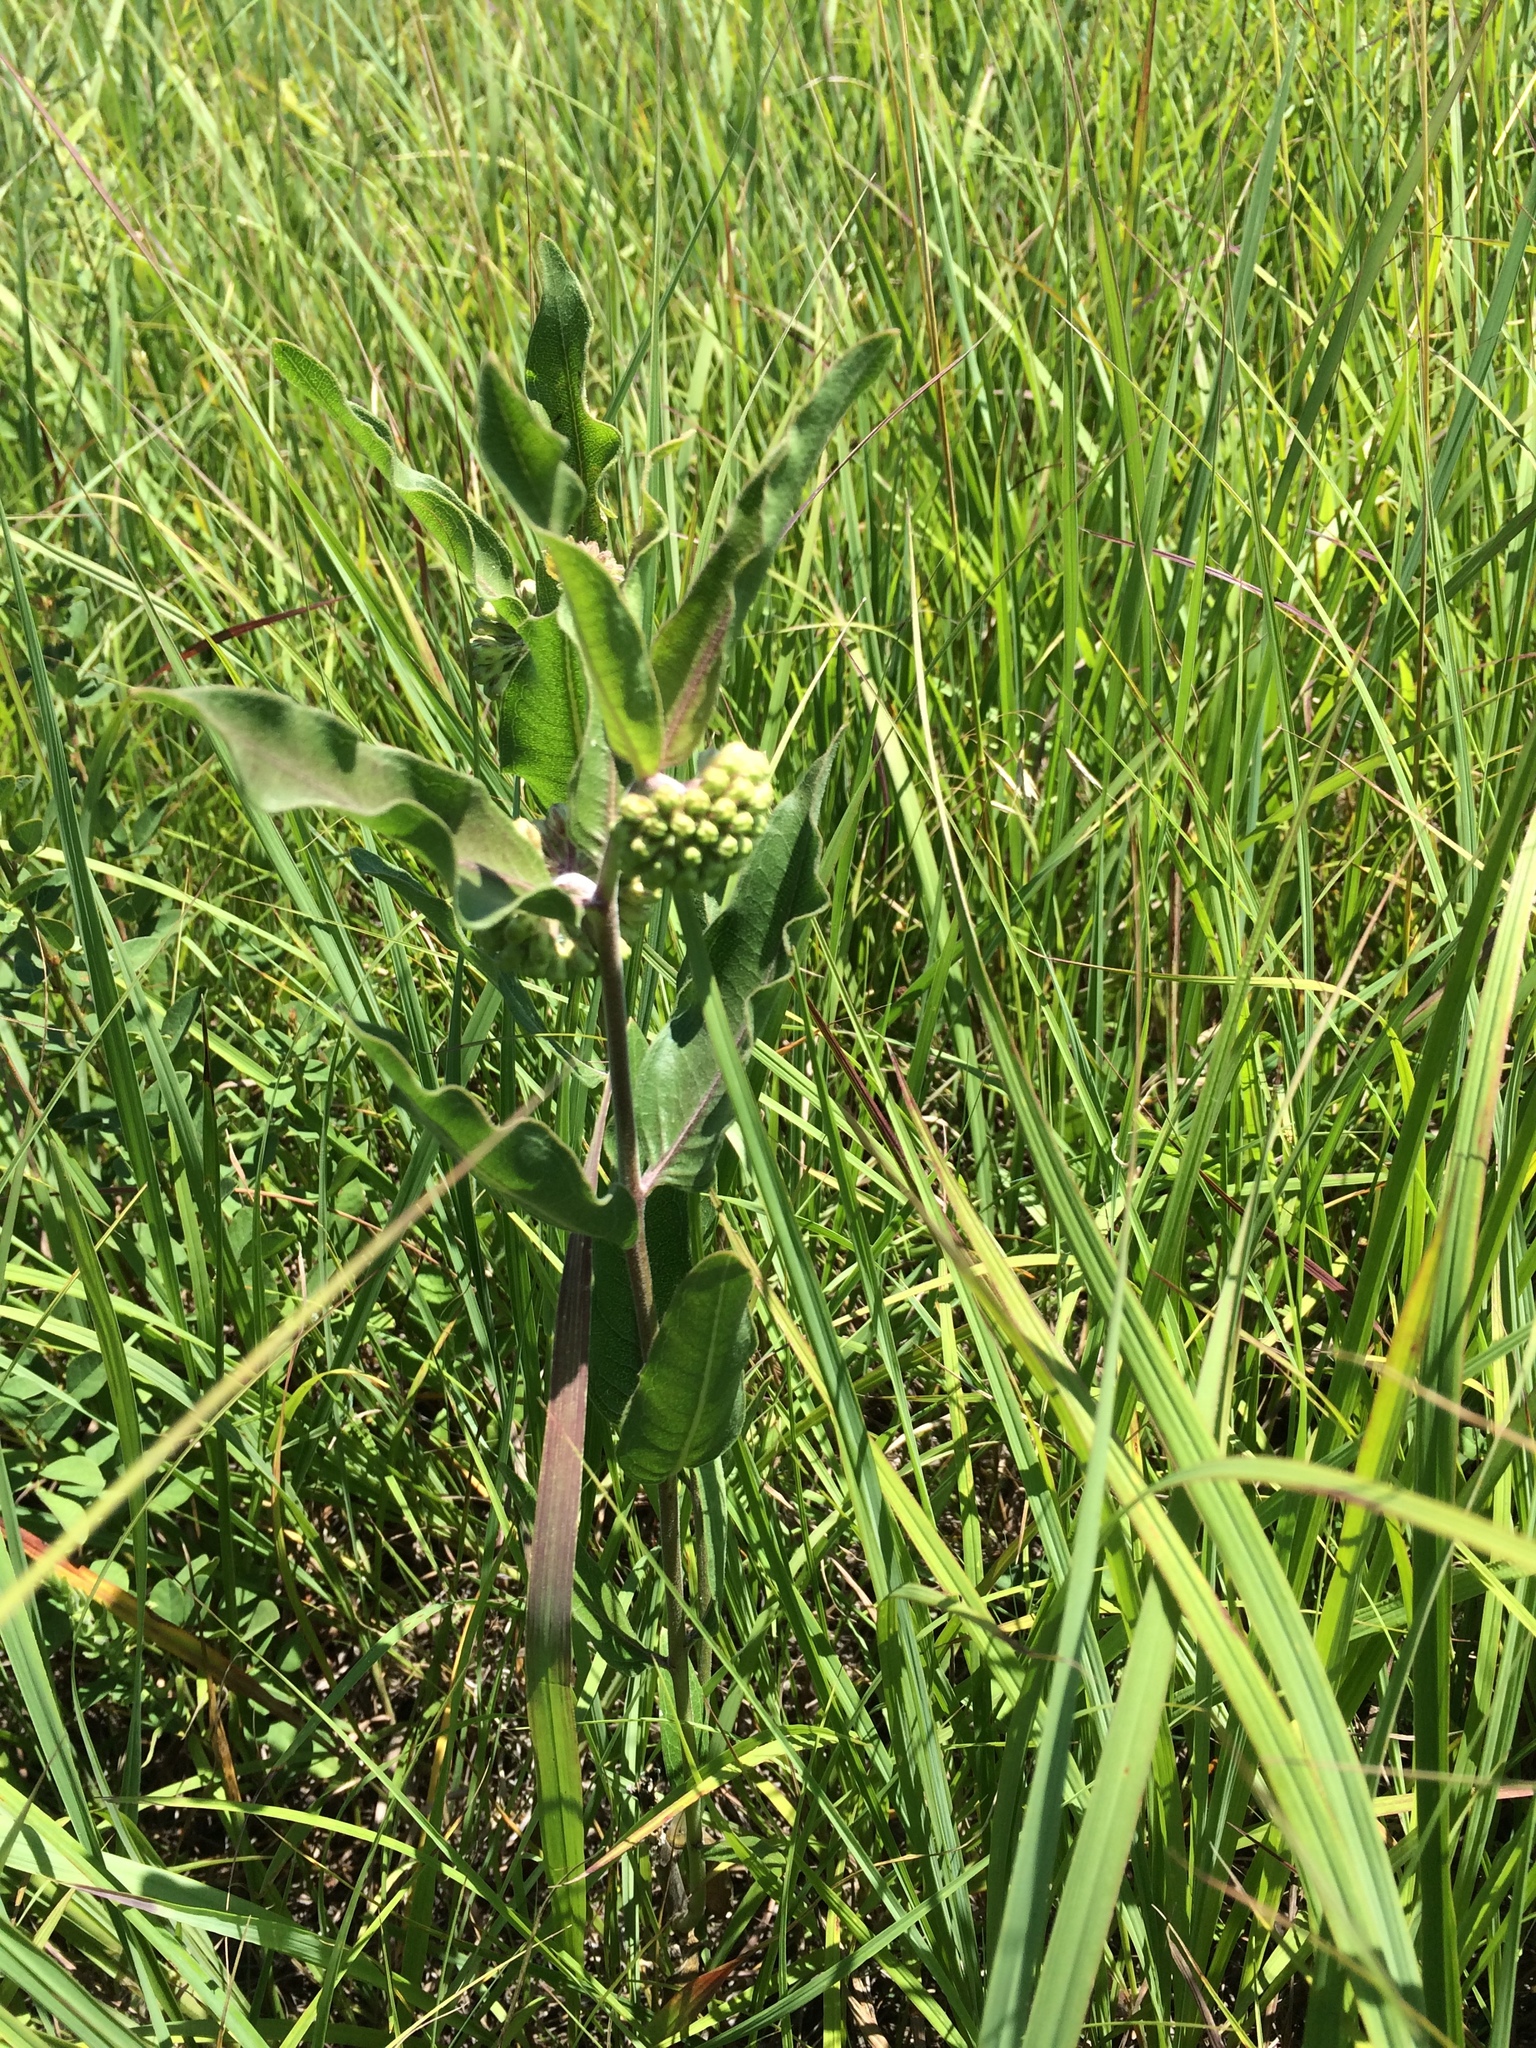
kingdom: Plantae
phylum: Tracheophyta
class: Magnoliopsida
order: Gentianales
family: Apocynaceae
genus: Asclepias
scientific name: Asclepias viridiflora
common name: Green comet milkweed
